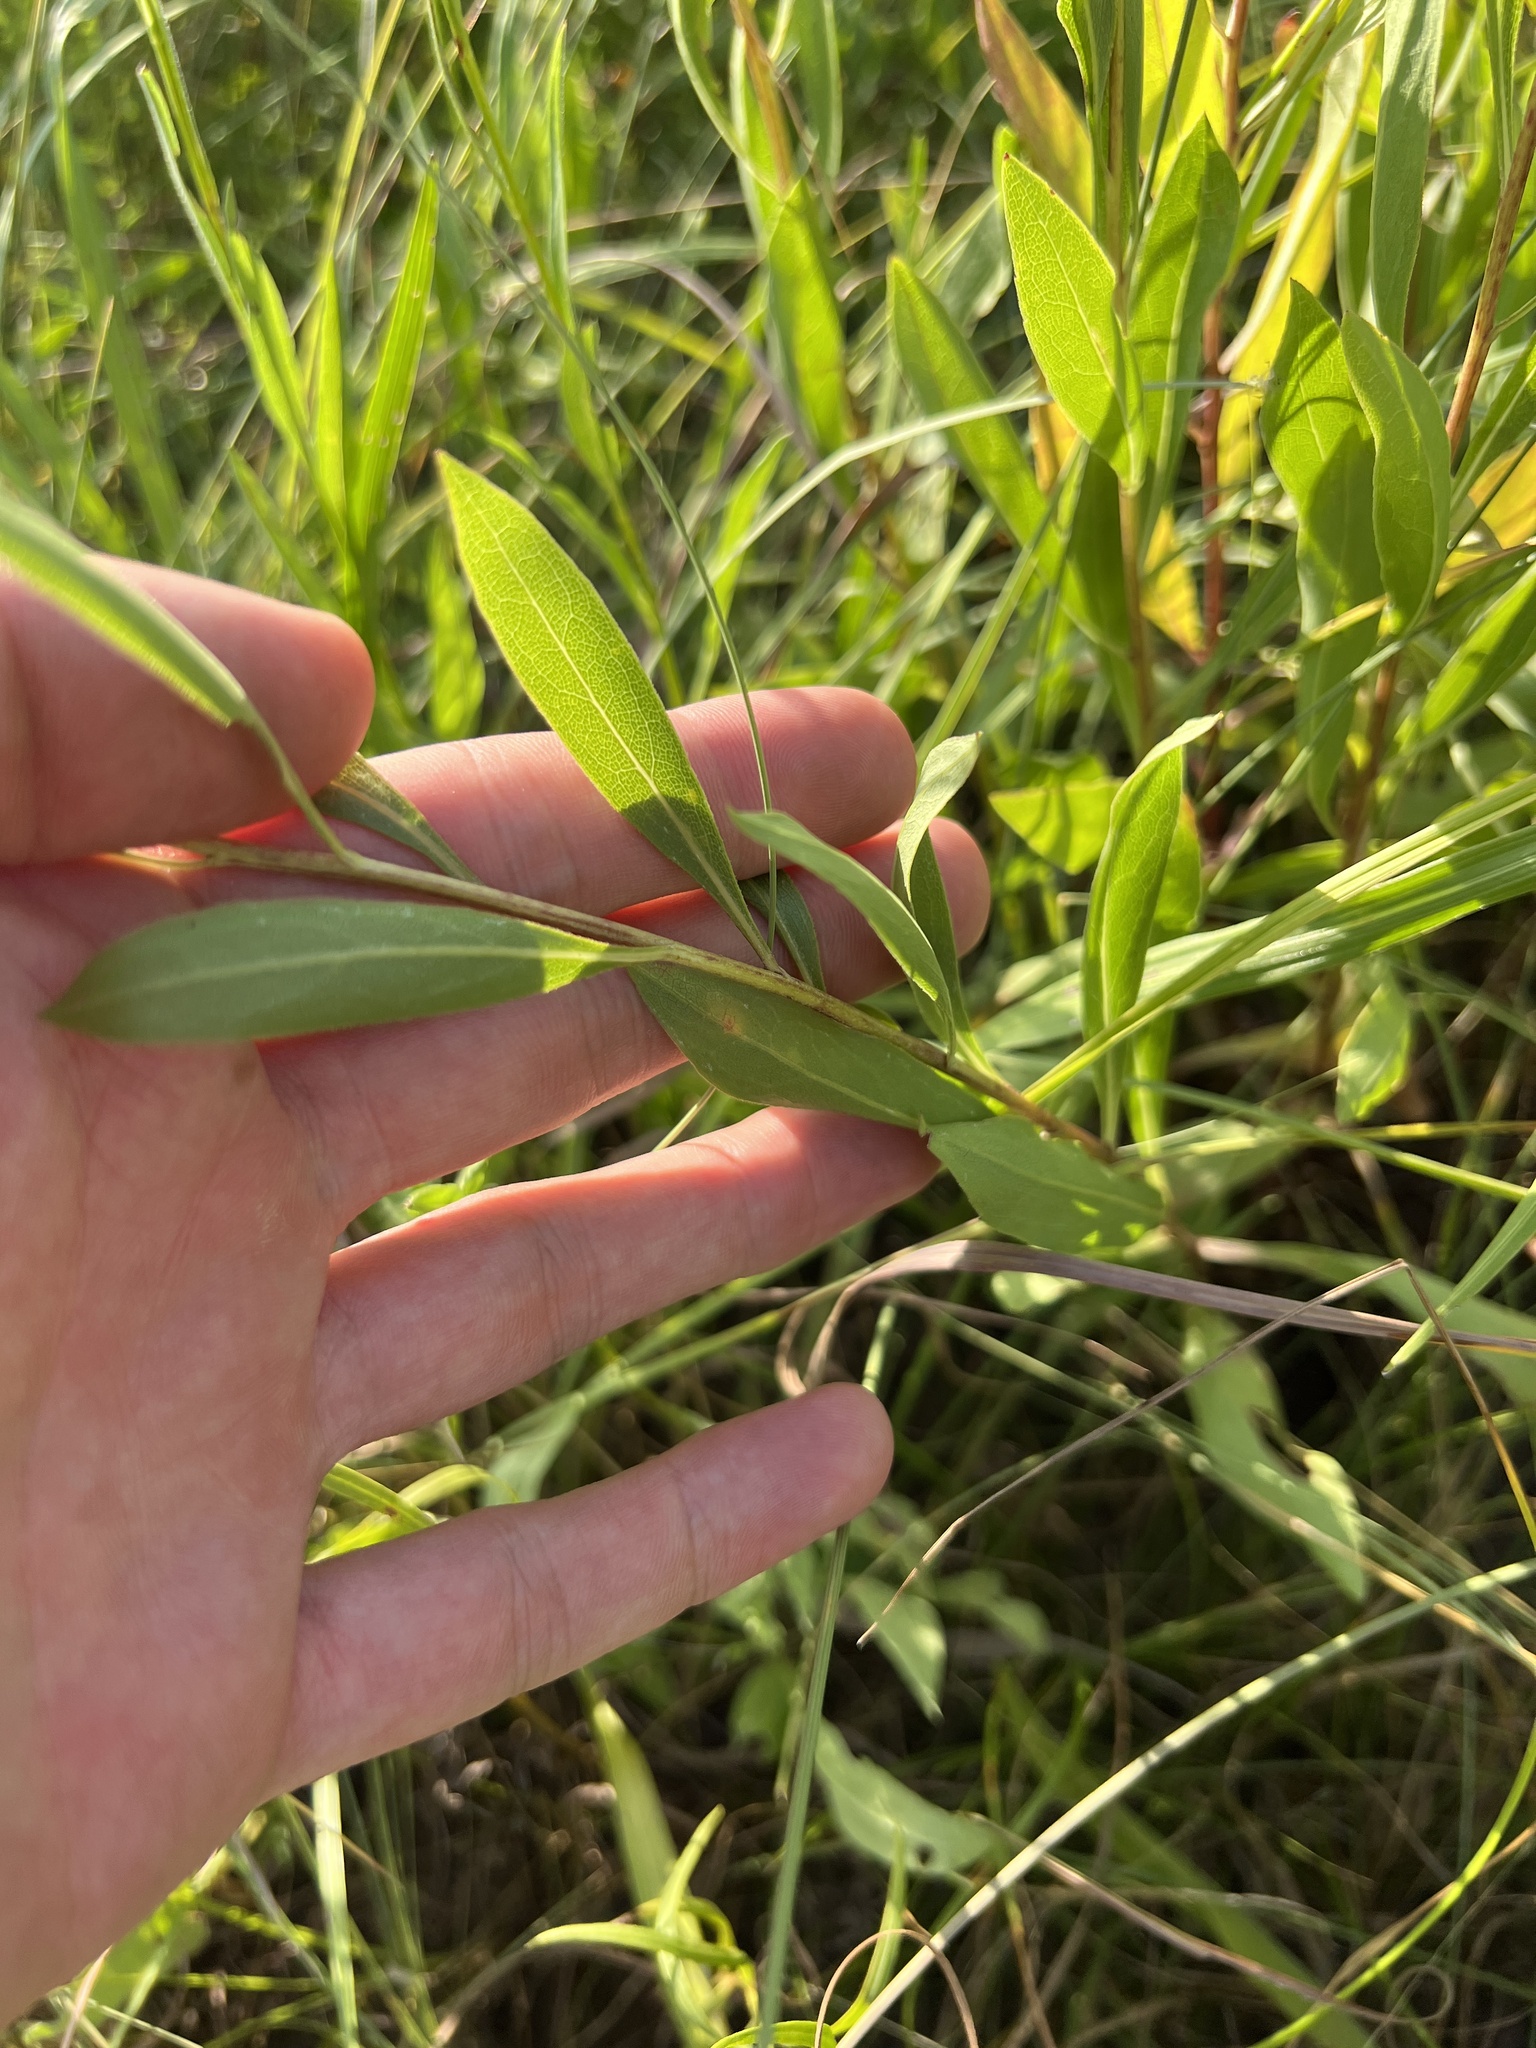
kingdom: Plantae
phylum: Tracheophyta
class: Magnoliopsida
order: Asterales
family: Asteraceae
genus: Solidago
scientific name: Solidago rigidiuscula
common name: Stiff-leaved showy goldenrod
